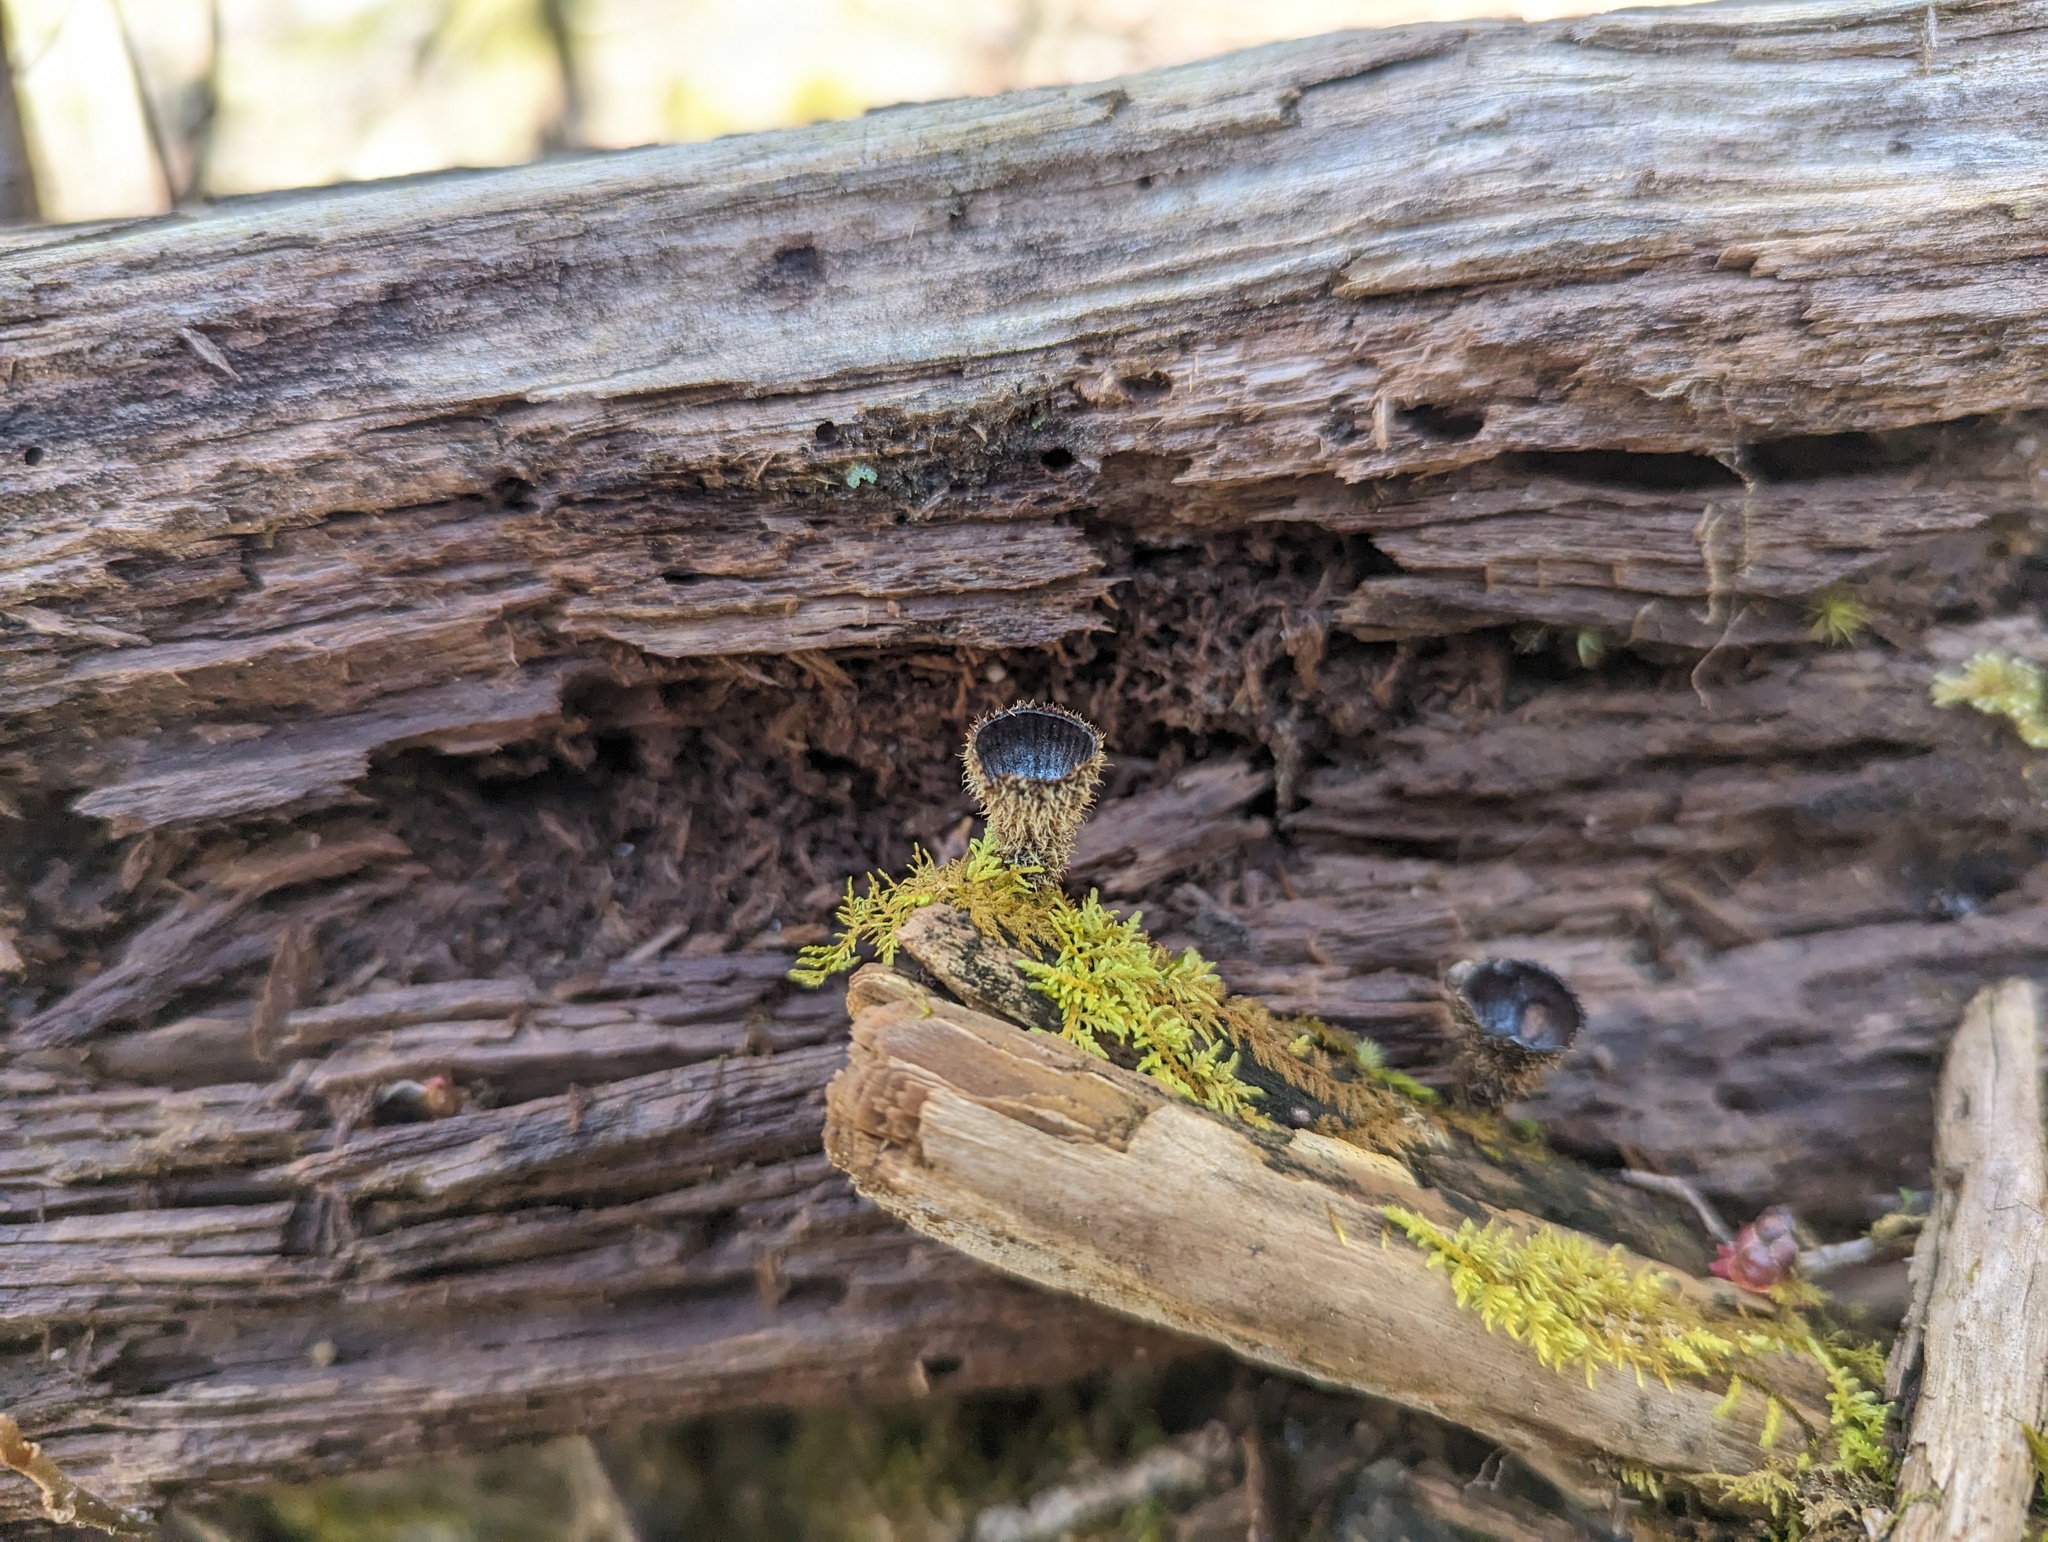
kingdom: Fungi
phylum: Basidiomycota
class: Agaricomycetes
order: Agaricales
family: Agaricaceae
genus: Cyathus
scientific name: Cyathus striatus
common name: Fluted bird's nest
